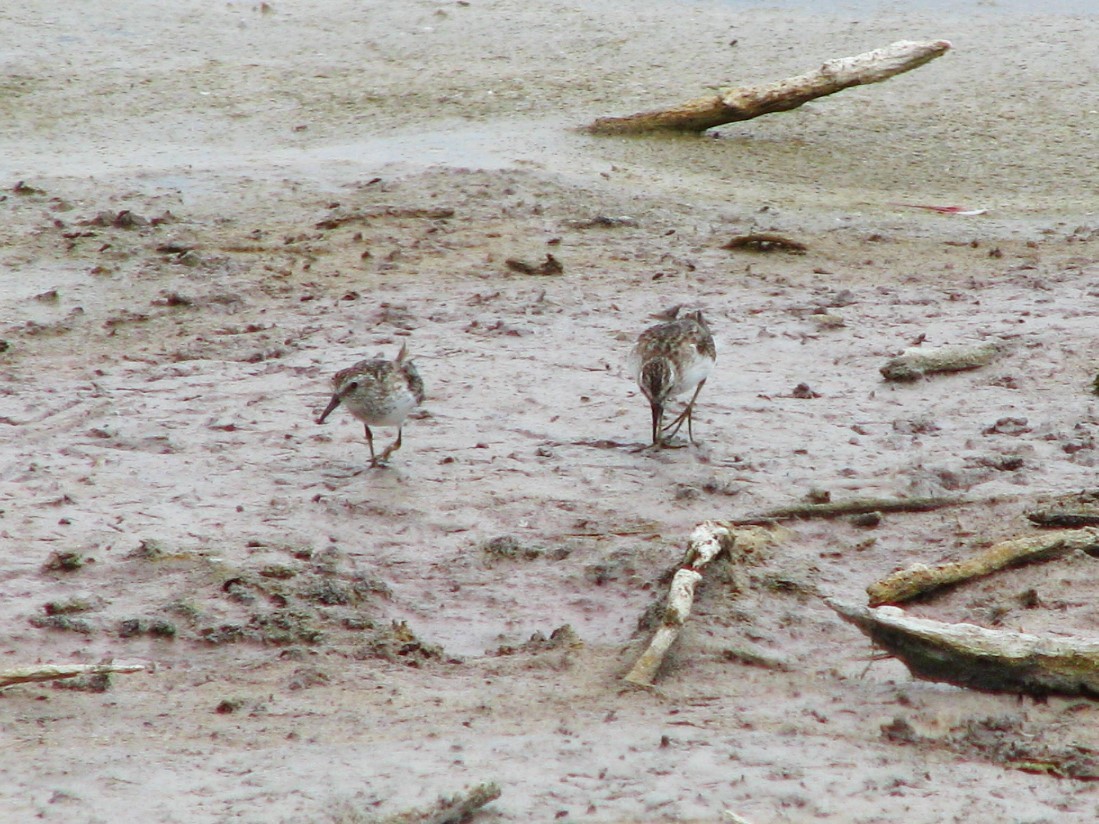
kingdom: Animalia
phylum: Chordata
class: Aves
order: Charadriiformes
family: Scolopacidae
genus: Calidris
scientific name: Calidris minutilla
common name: Least sandpiper
